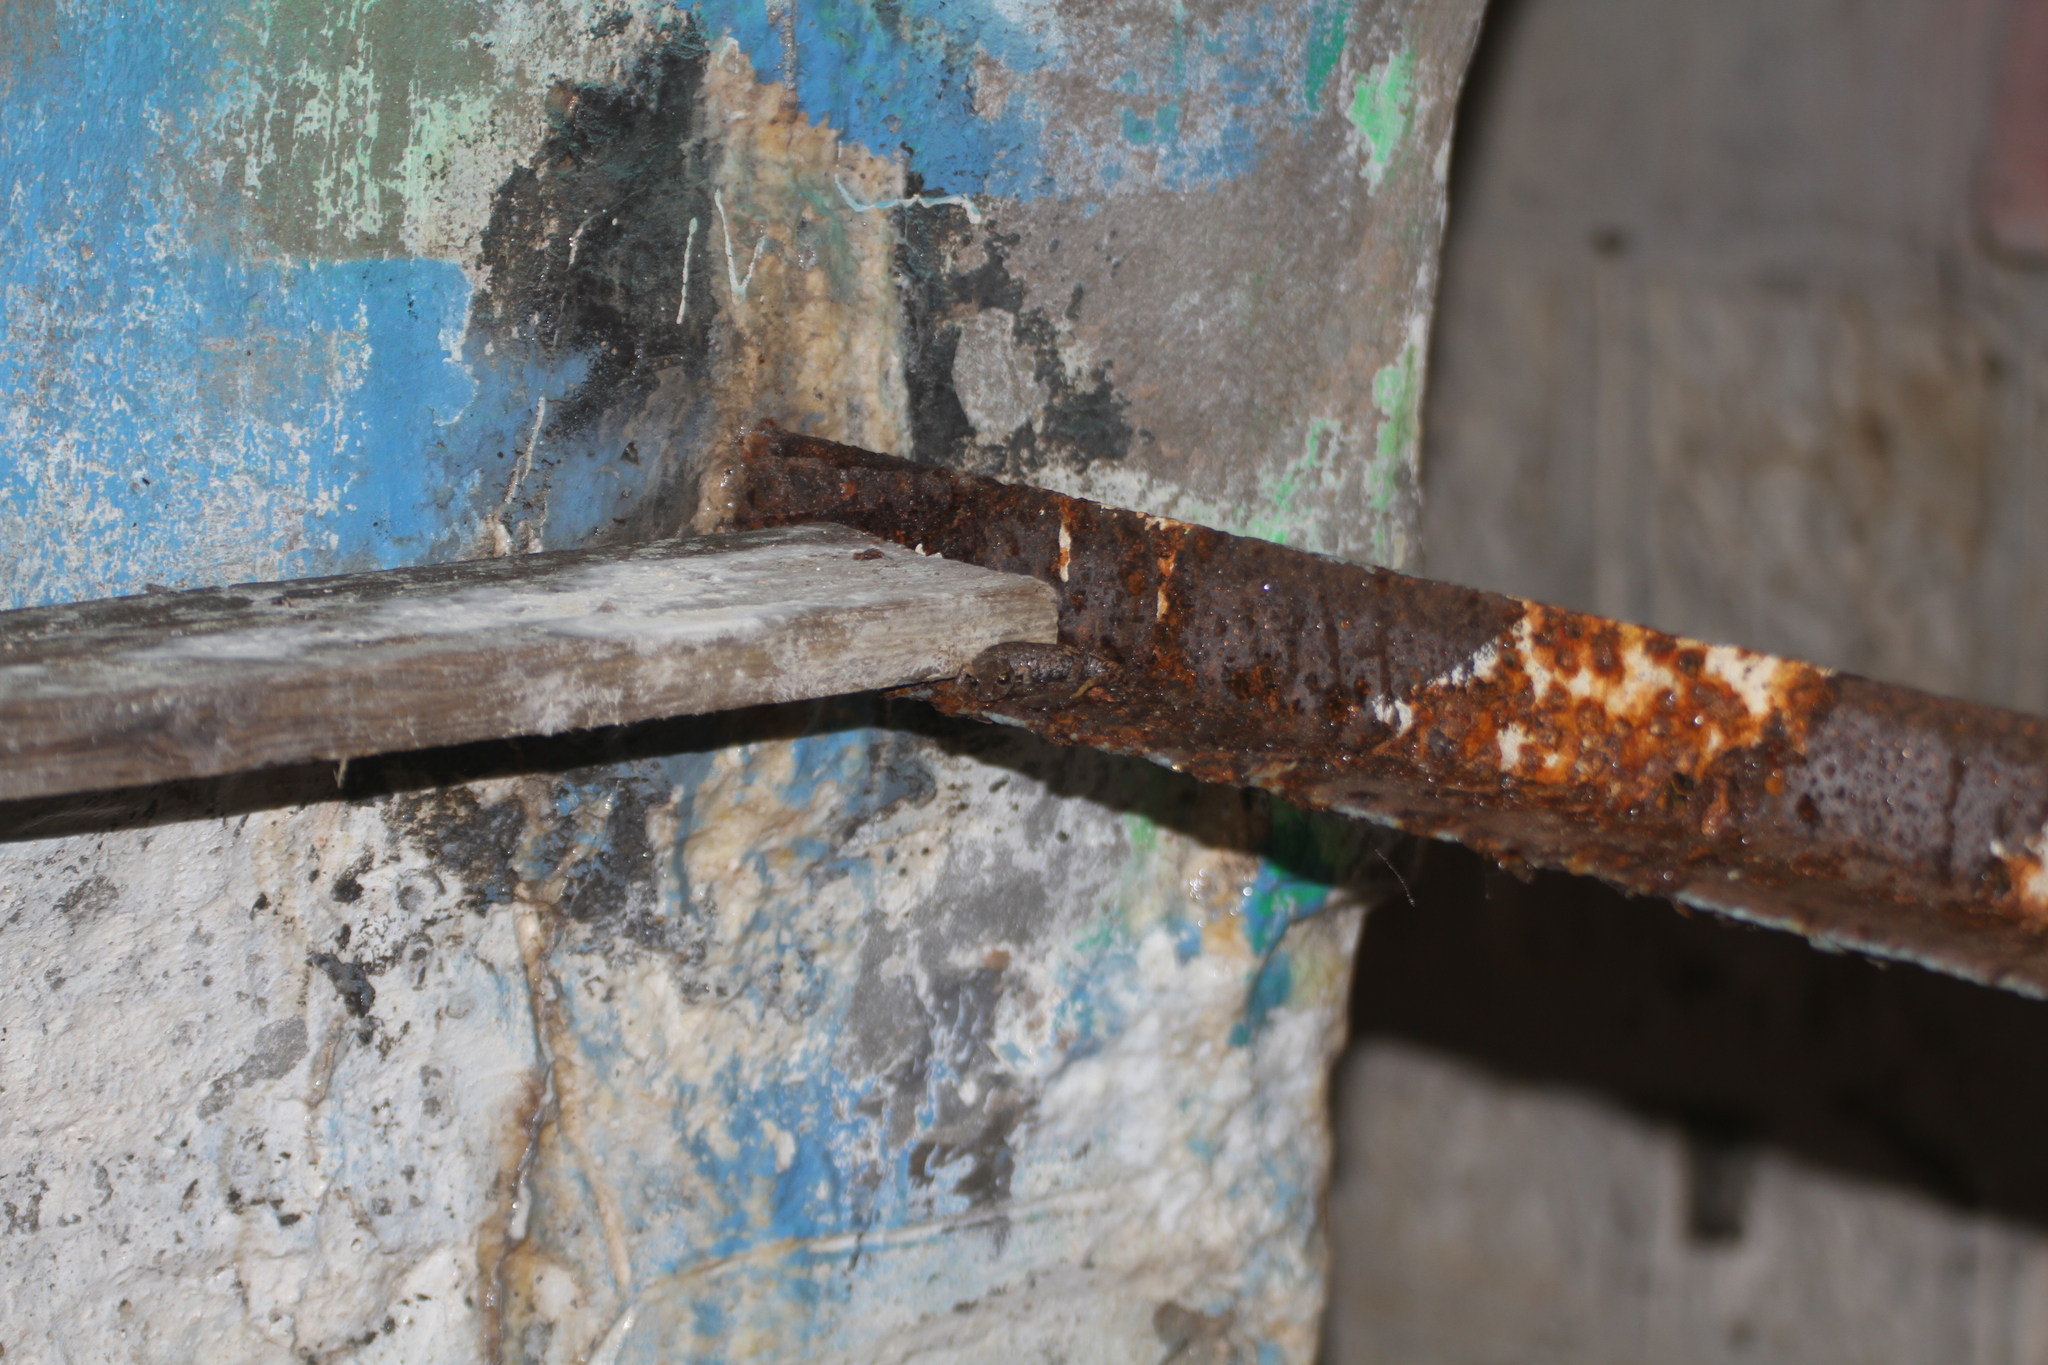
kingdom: Animalia
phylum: Chordata
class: Amphibia
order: Caudata
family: Plethodontidae
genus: Speleomantes
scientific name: Speleomantes strinatii
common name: French cave salamander
